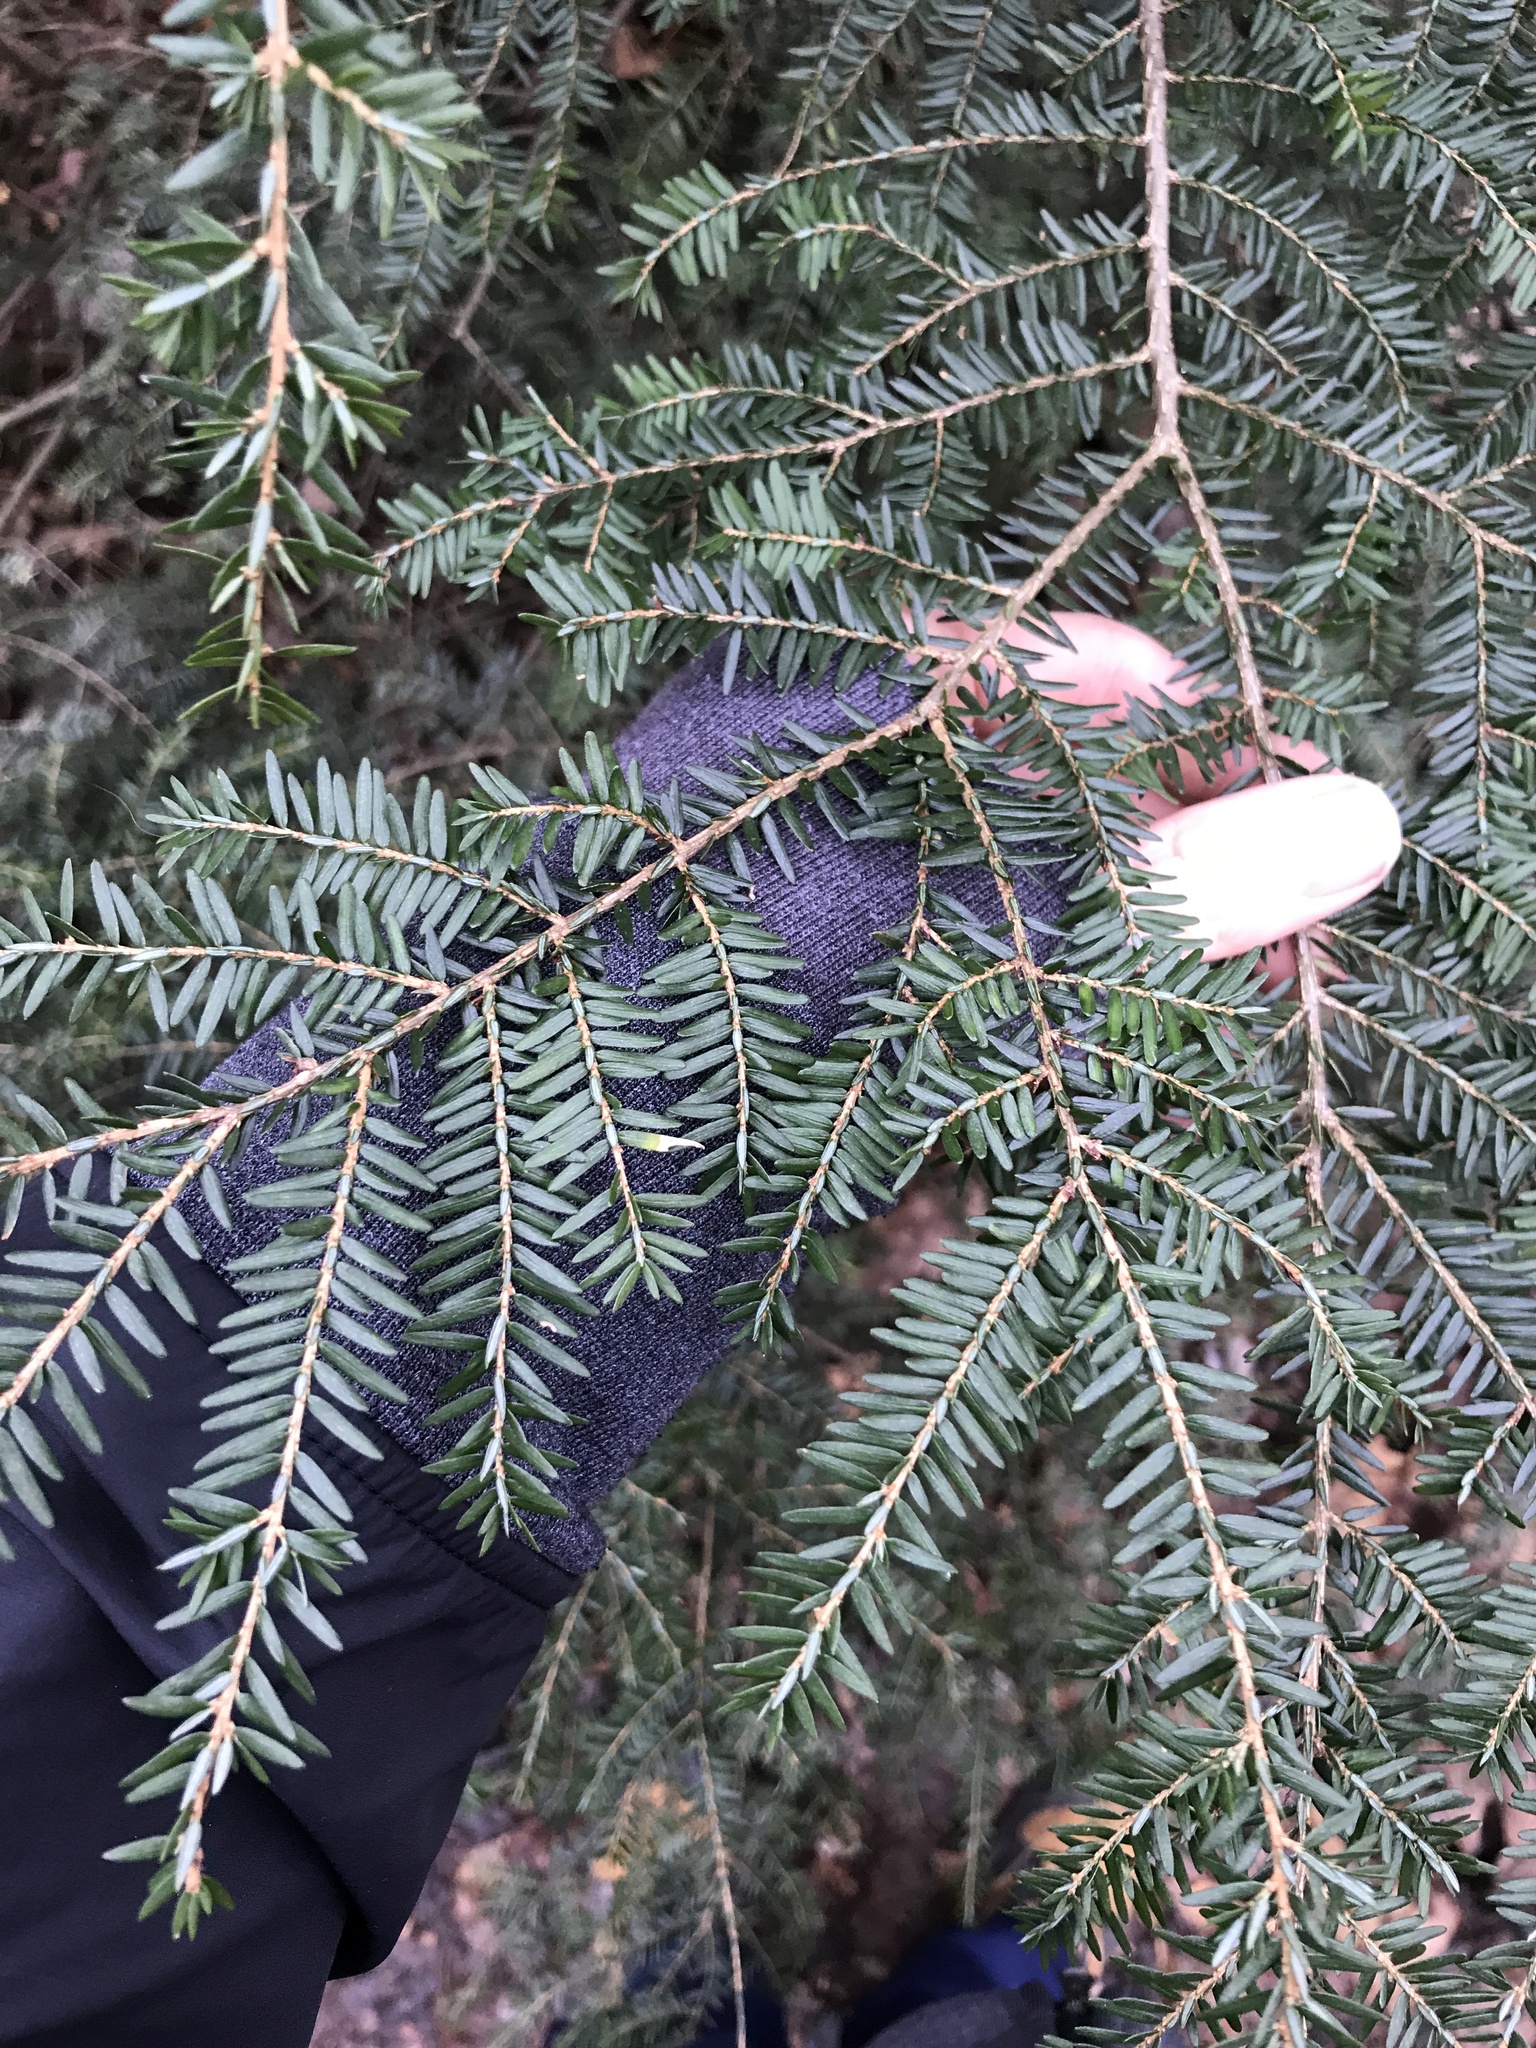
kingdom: Plantae
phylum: Tracheophyta
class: Pinopsida
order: Pinales
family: Pinaceae
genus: Tsuga
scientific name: Tsuga canadensis
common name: Eastern hemlock
